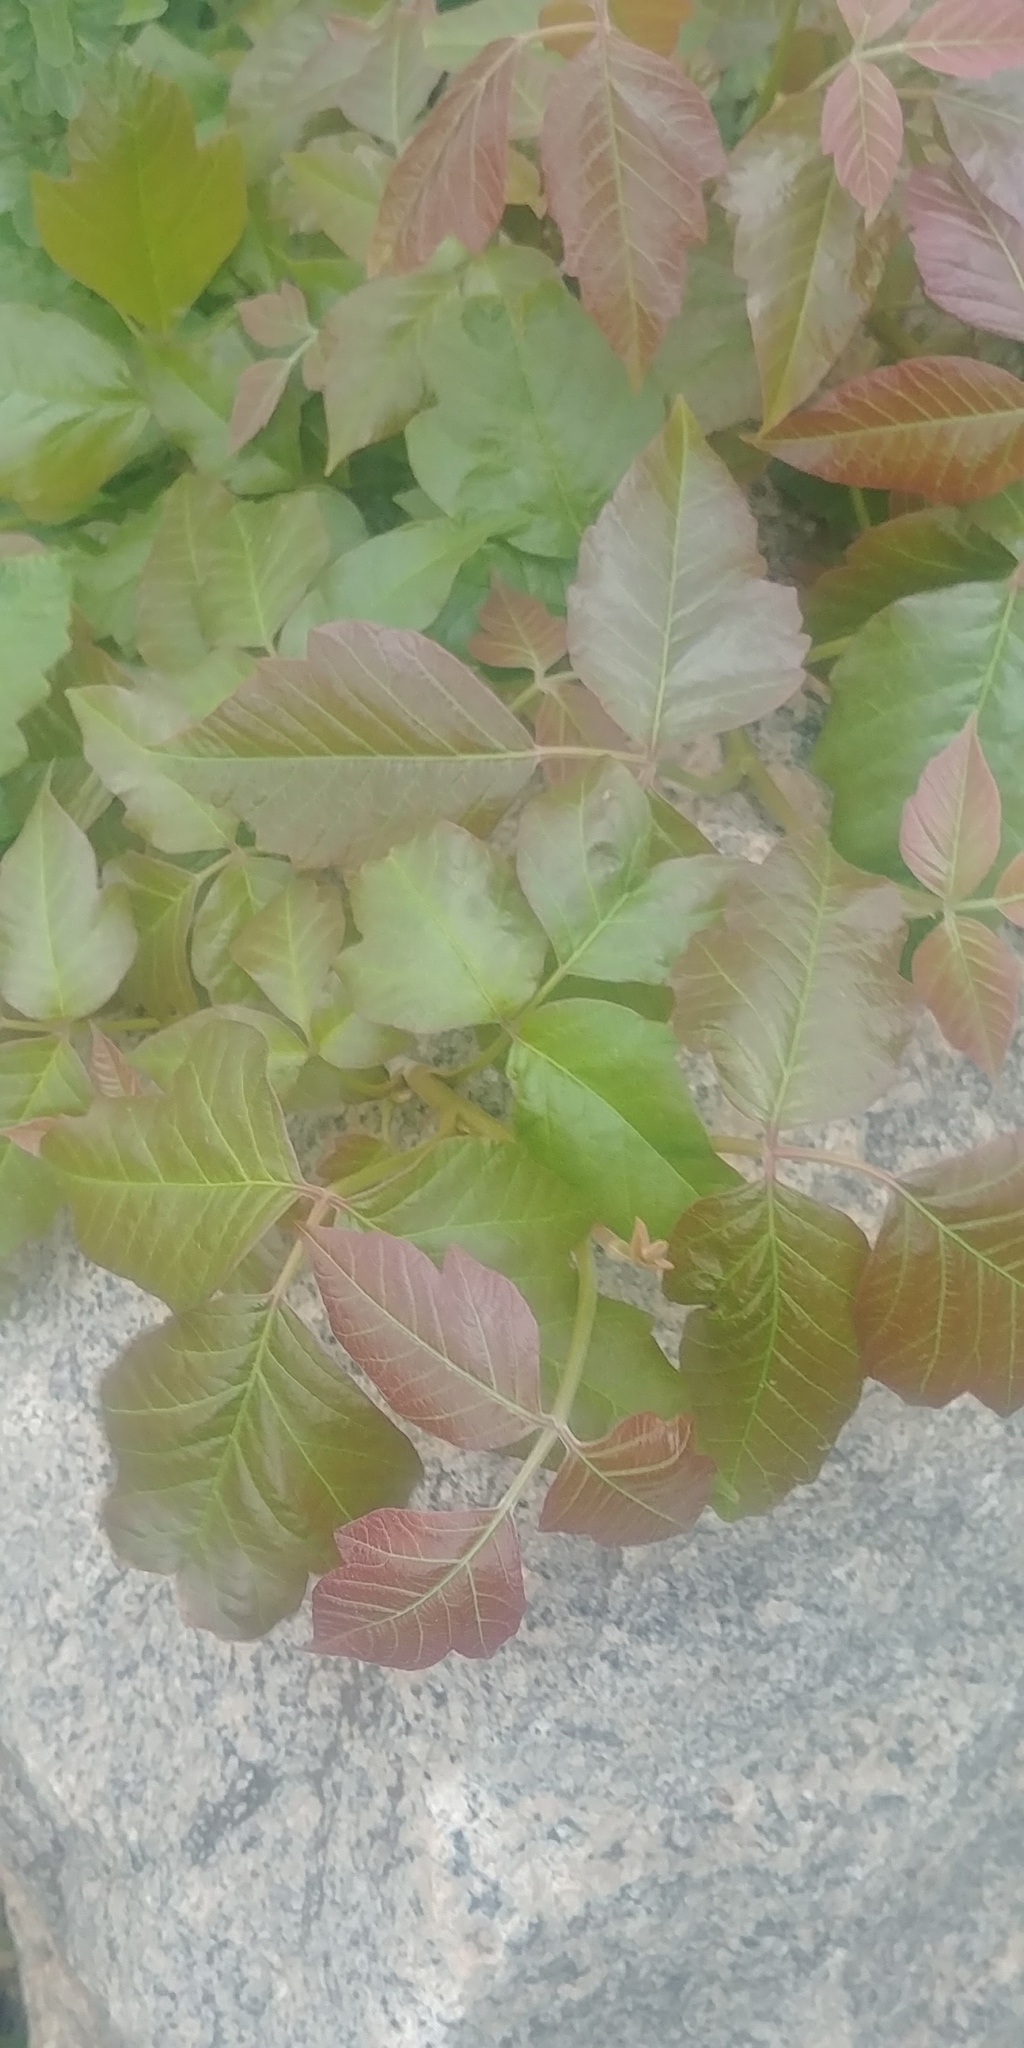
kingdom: Plantae
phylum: Tracheophyta
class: Magnoliopsida
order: Sapindales
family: Anacardiaceae
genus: Toxicodendron
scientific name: Toxicodendron radicans
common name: Poison ivy
